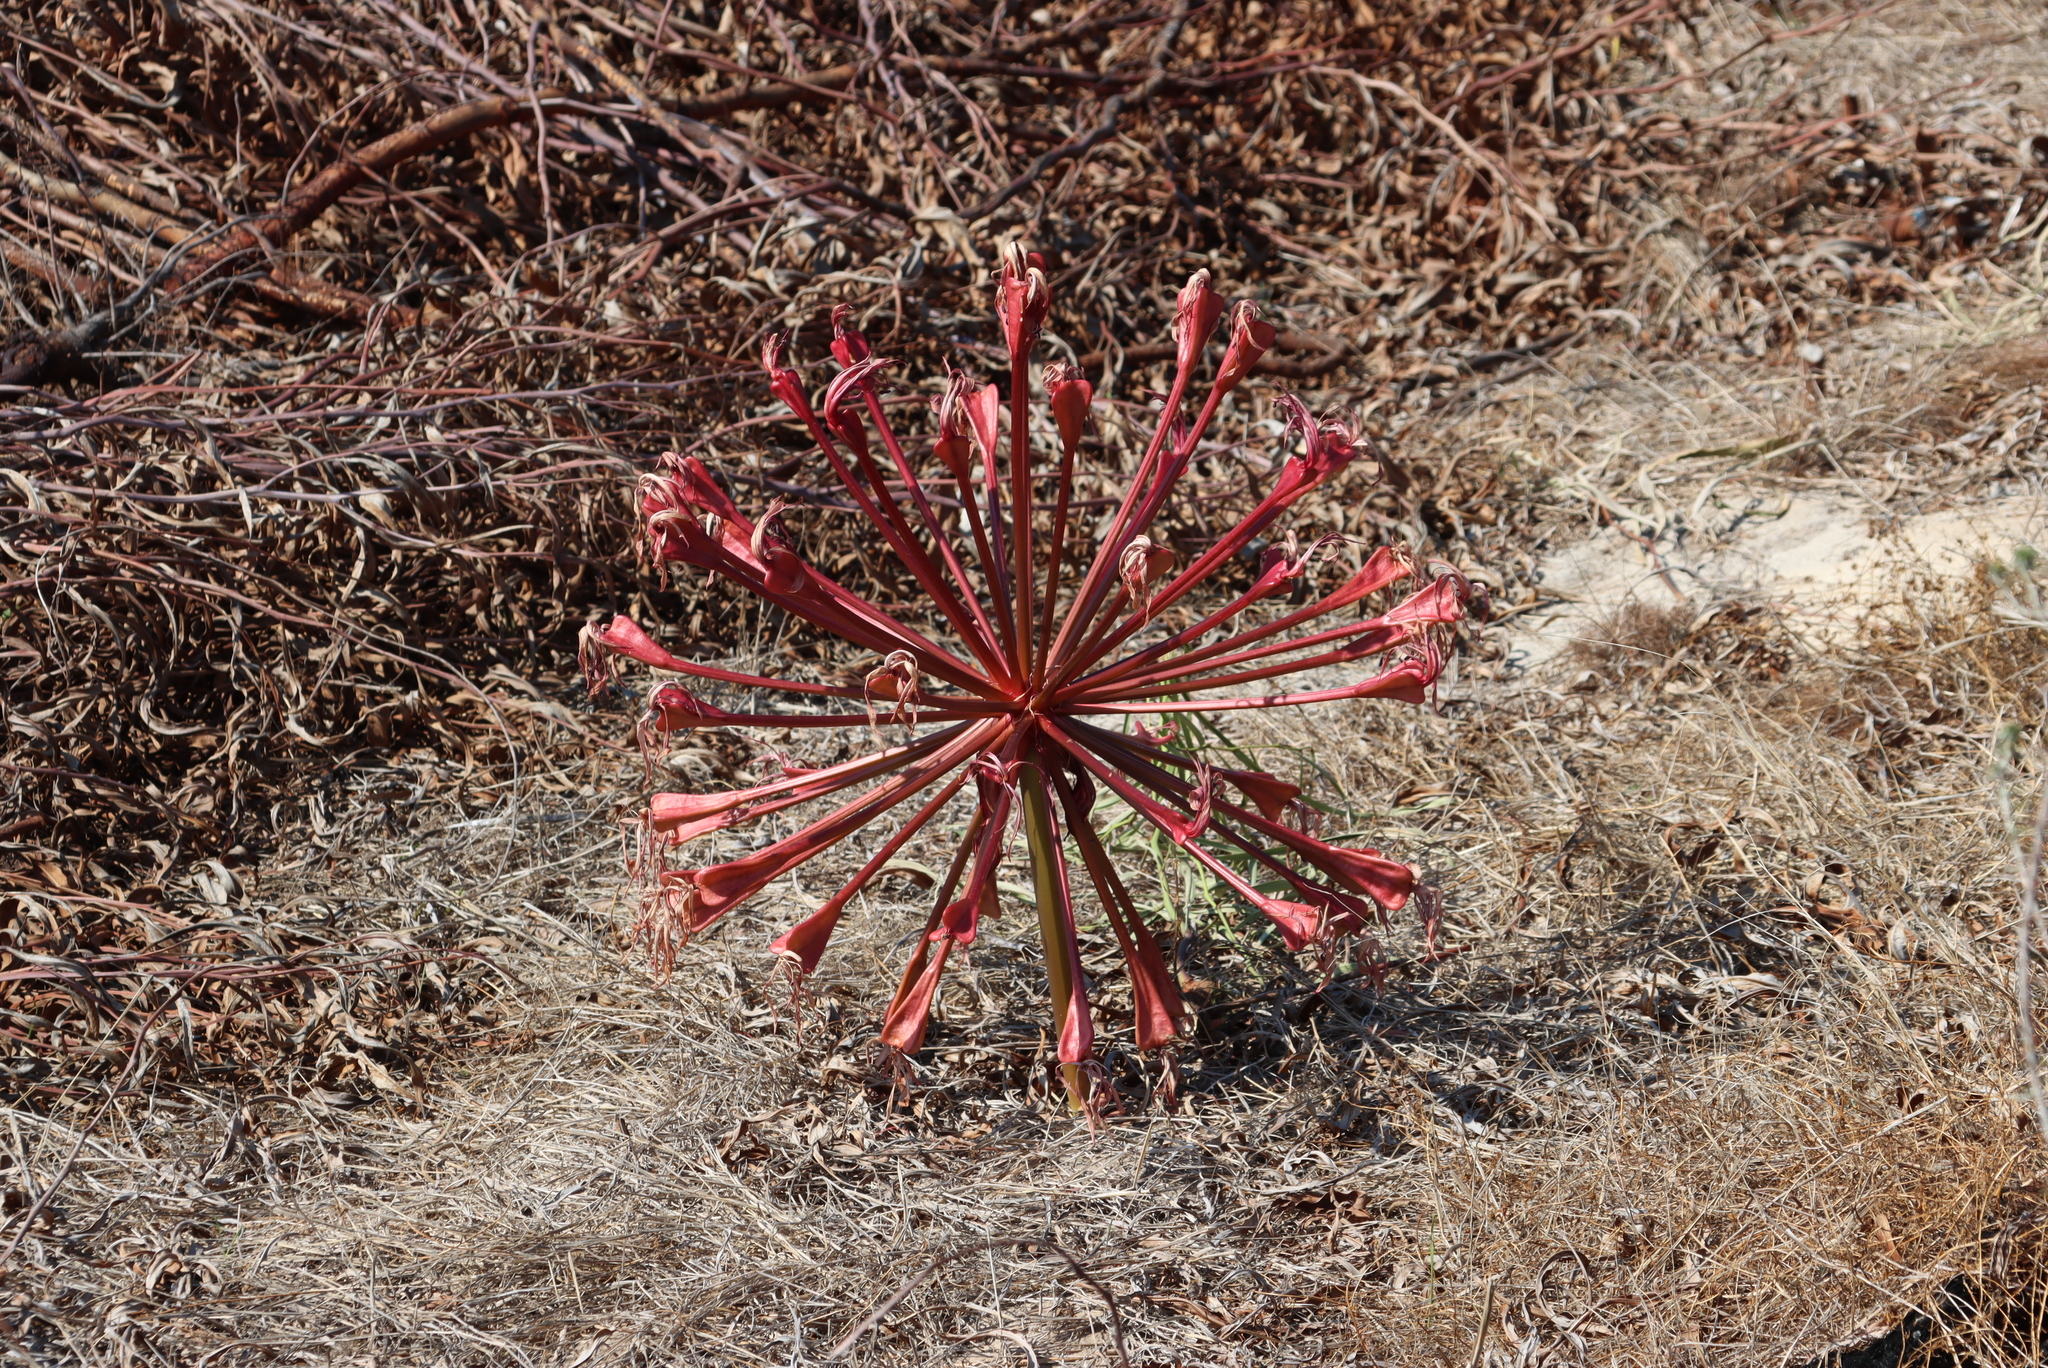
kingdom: Plantae
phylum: Tracheophyta
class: Liliopsida
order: Asparagales
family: Amaryllidaceae
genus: Brunsvigia
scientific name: Brunsvigia orientalis
